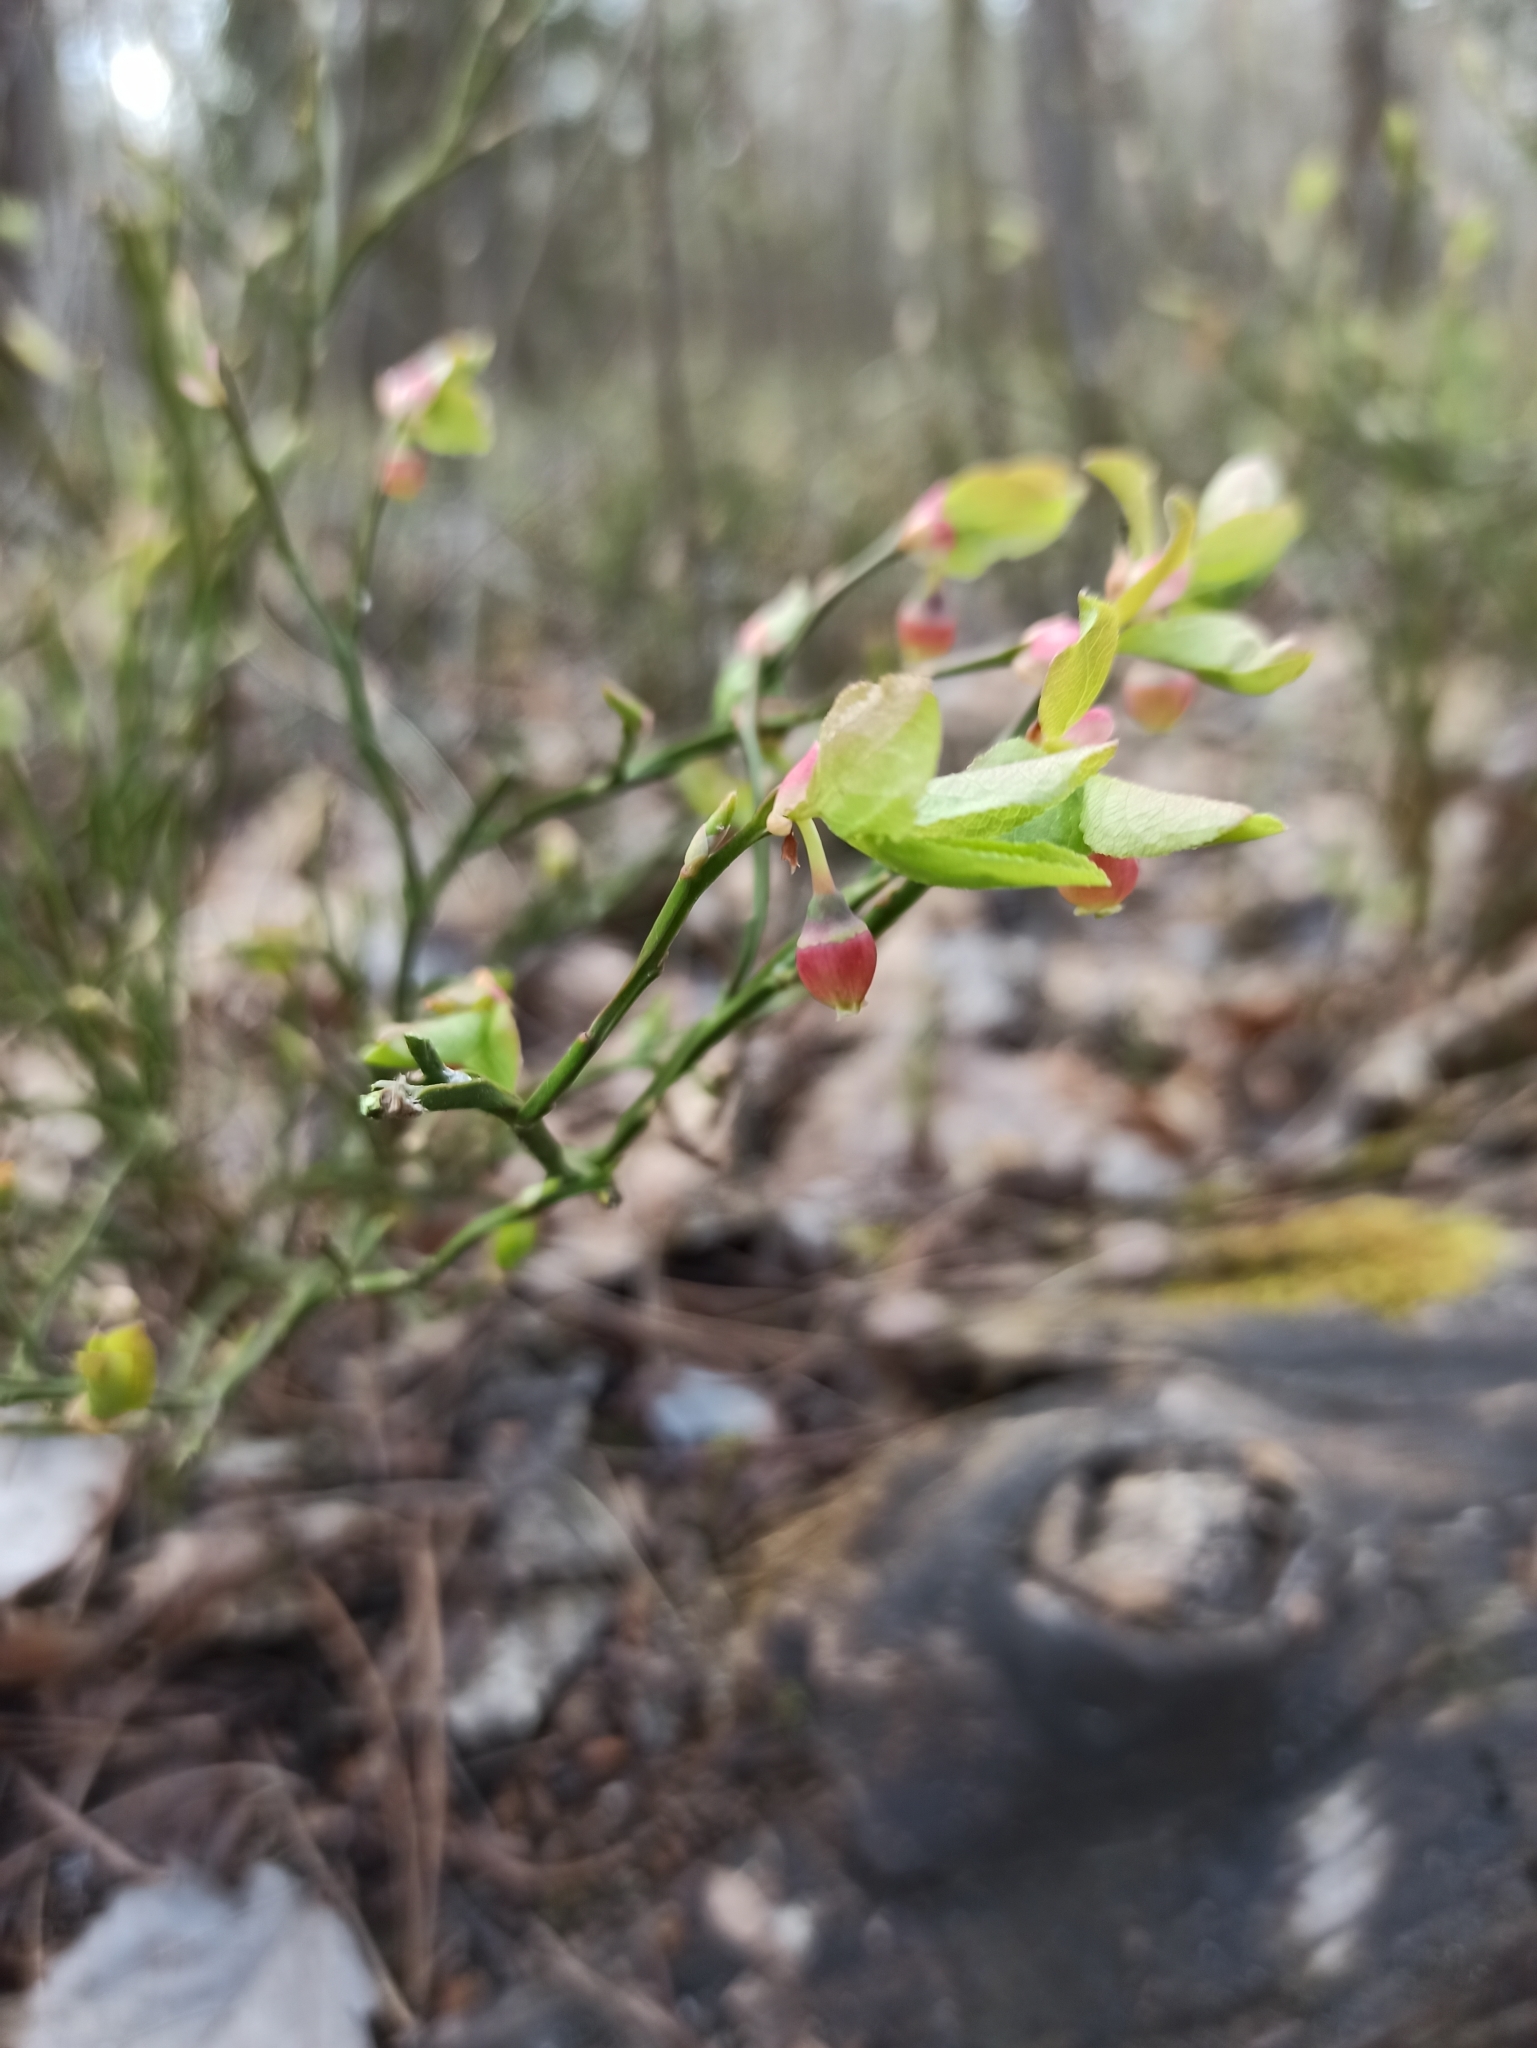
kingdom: Plantae
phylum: Tracheophyta
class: Magnoliopsida
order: Ericales
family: Ericaceae
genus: Vaccinium
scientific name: Vaccinium myrtillus
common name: Bilberry
